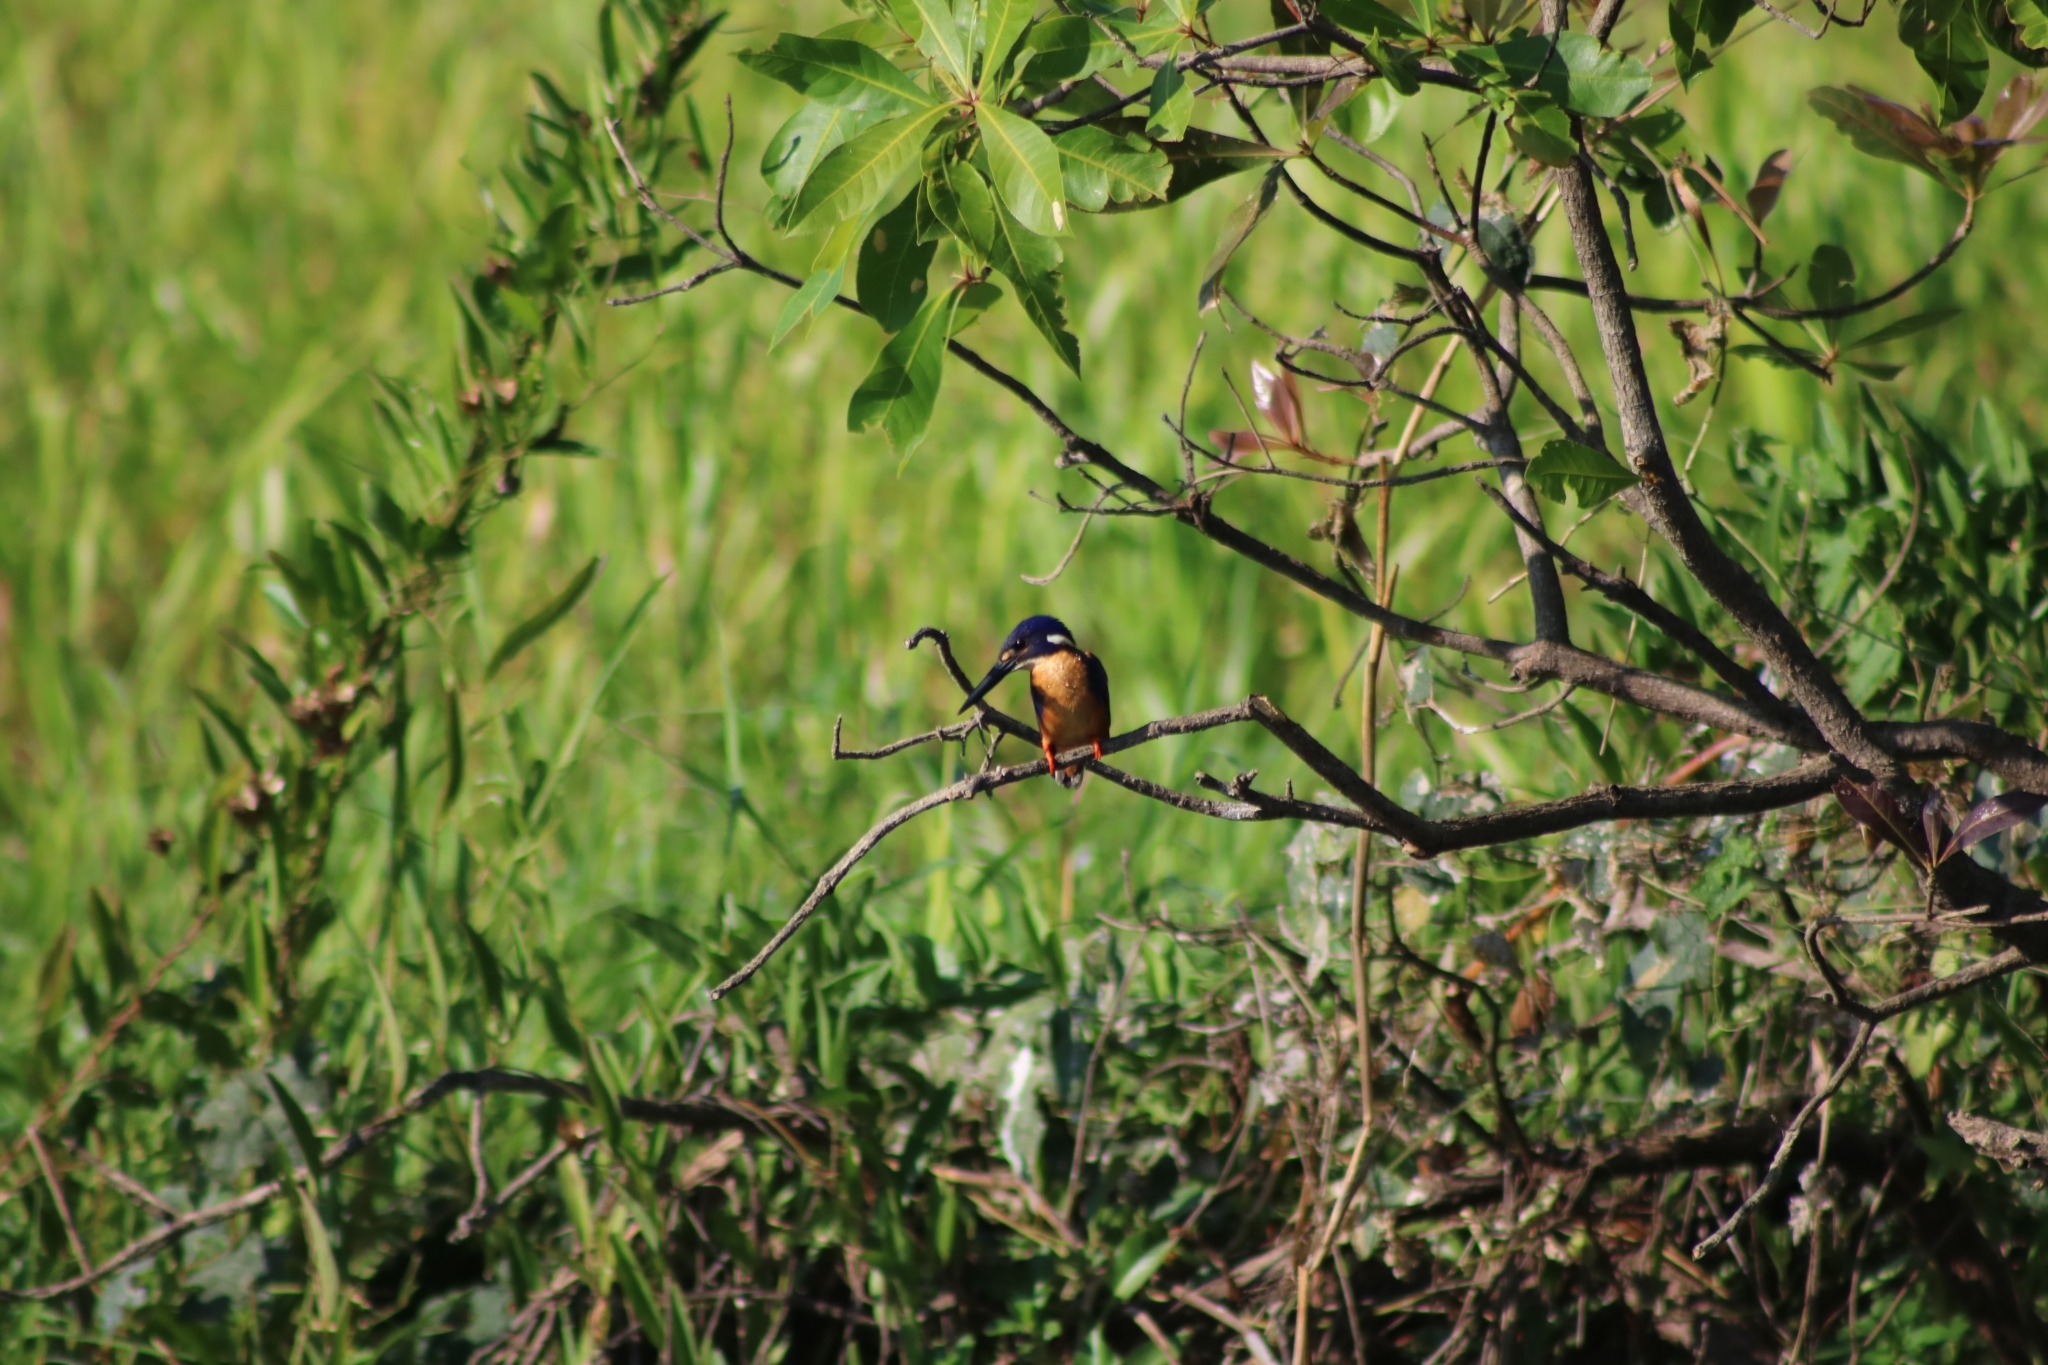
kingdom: Animalia
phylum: Chordata
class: Aves
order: Coraciiformes
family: Alcedinidae
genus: Ceyx
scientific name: Ceyx azureus
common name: Azure kingfisher
